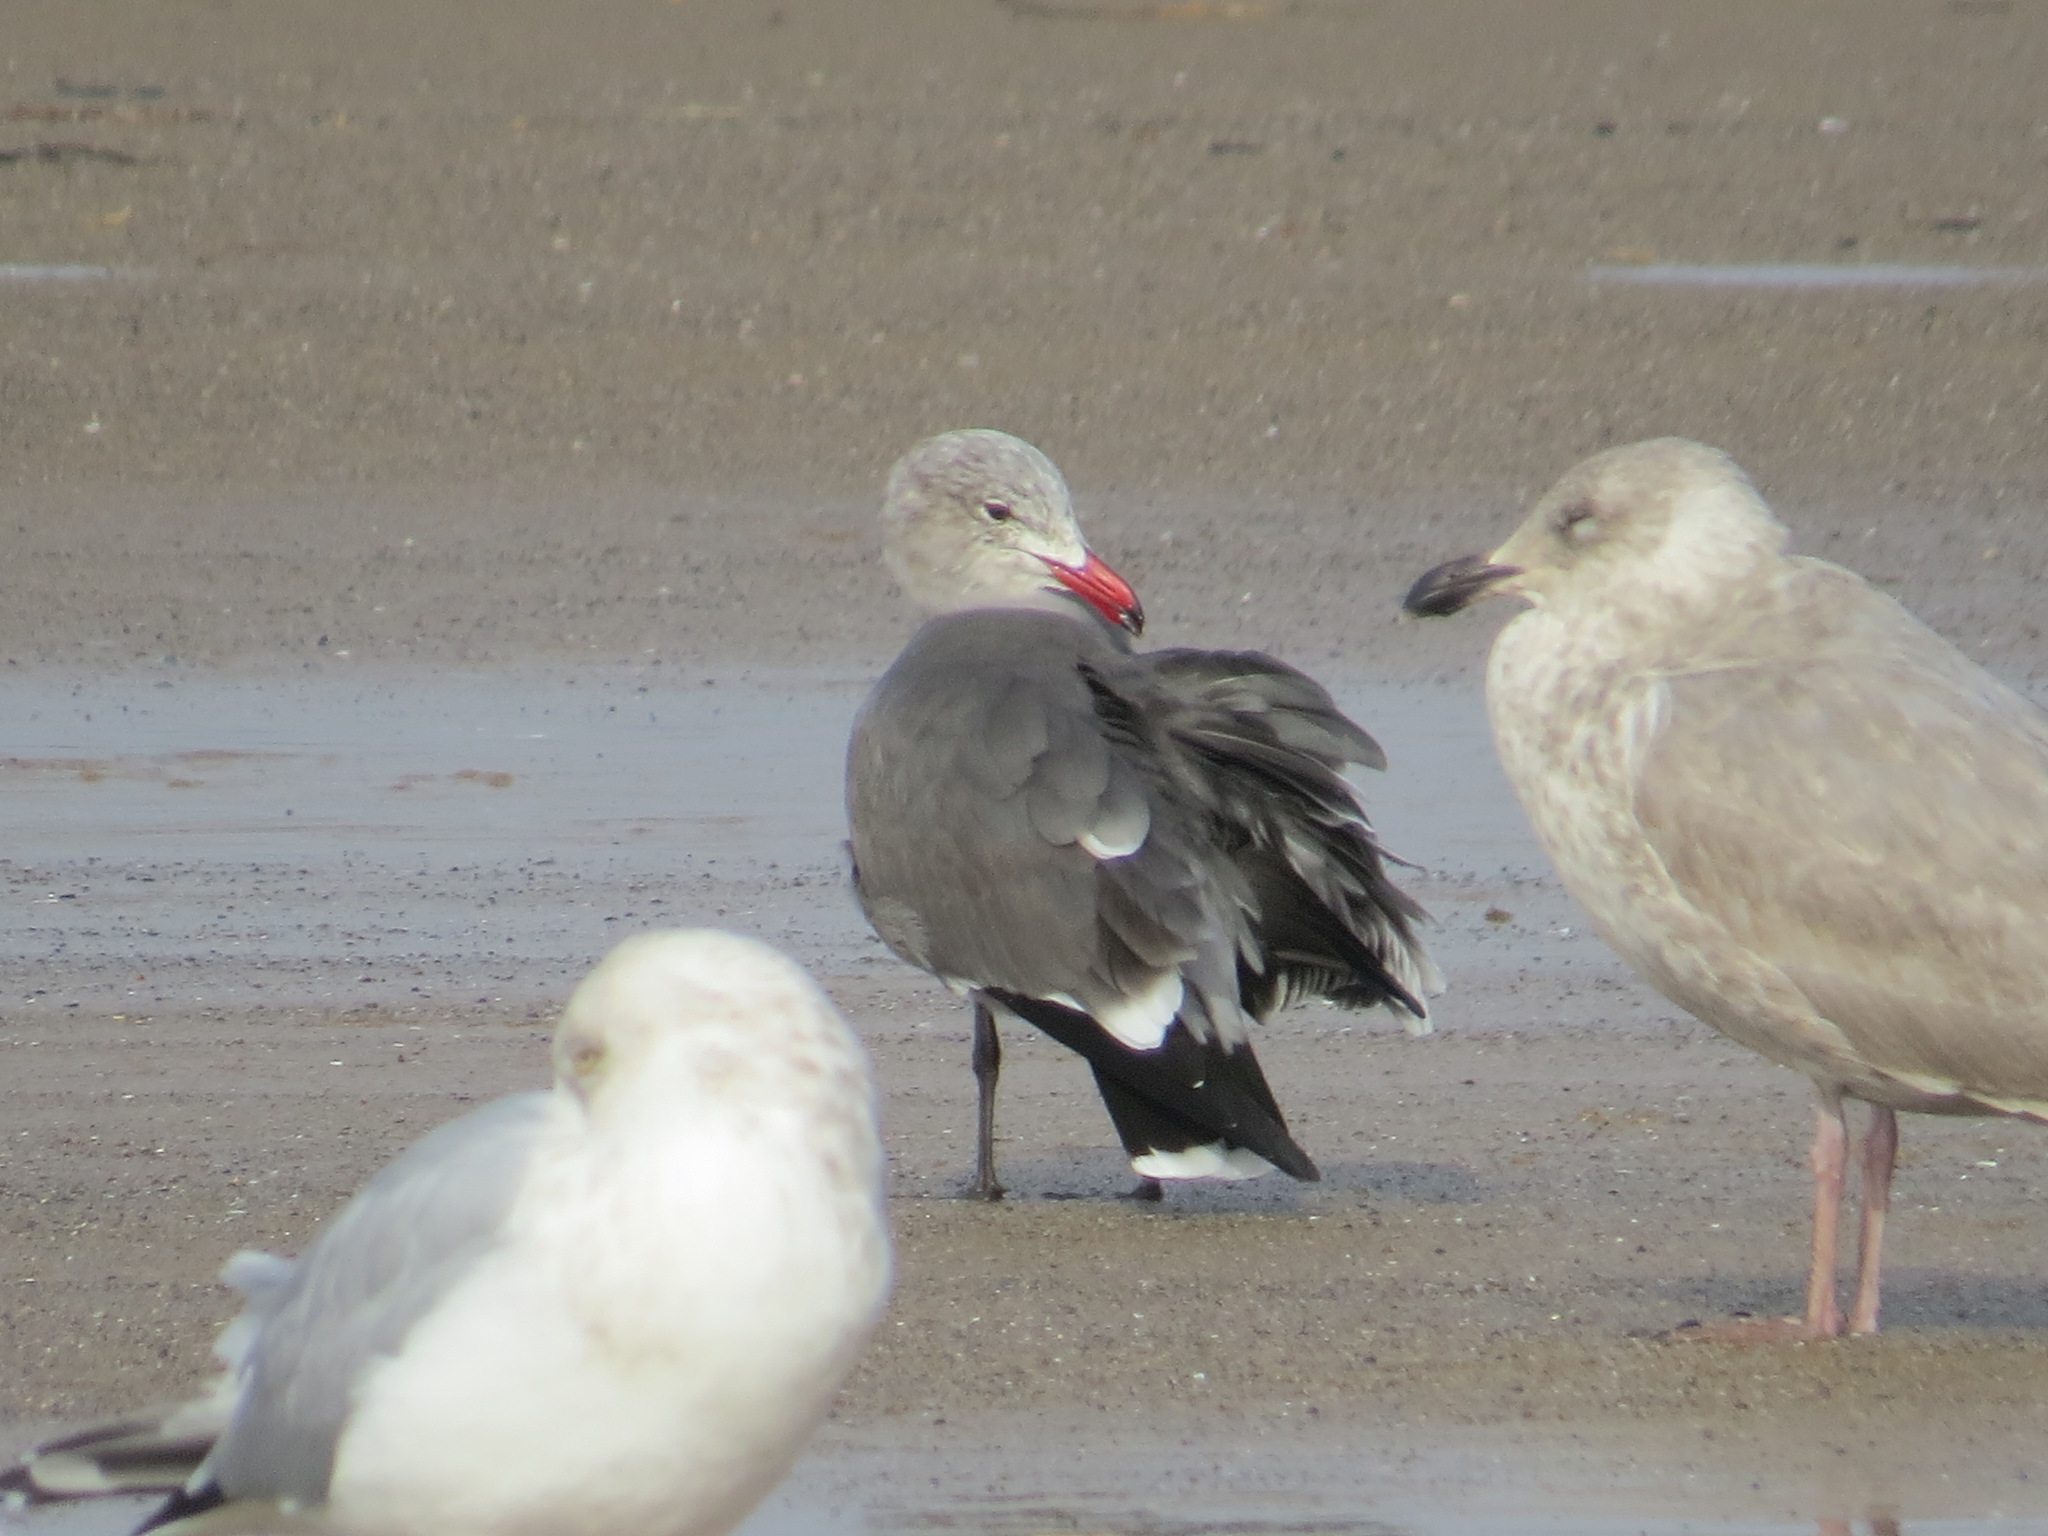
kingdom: Animalia
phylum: Chordata
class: Aves
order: Charadriiformes
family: Laridae
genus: Larus
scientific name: Larus heermanni
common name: Heermann's gull
